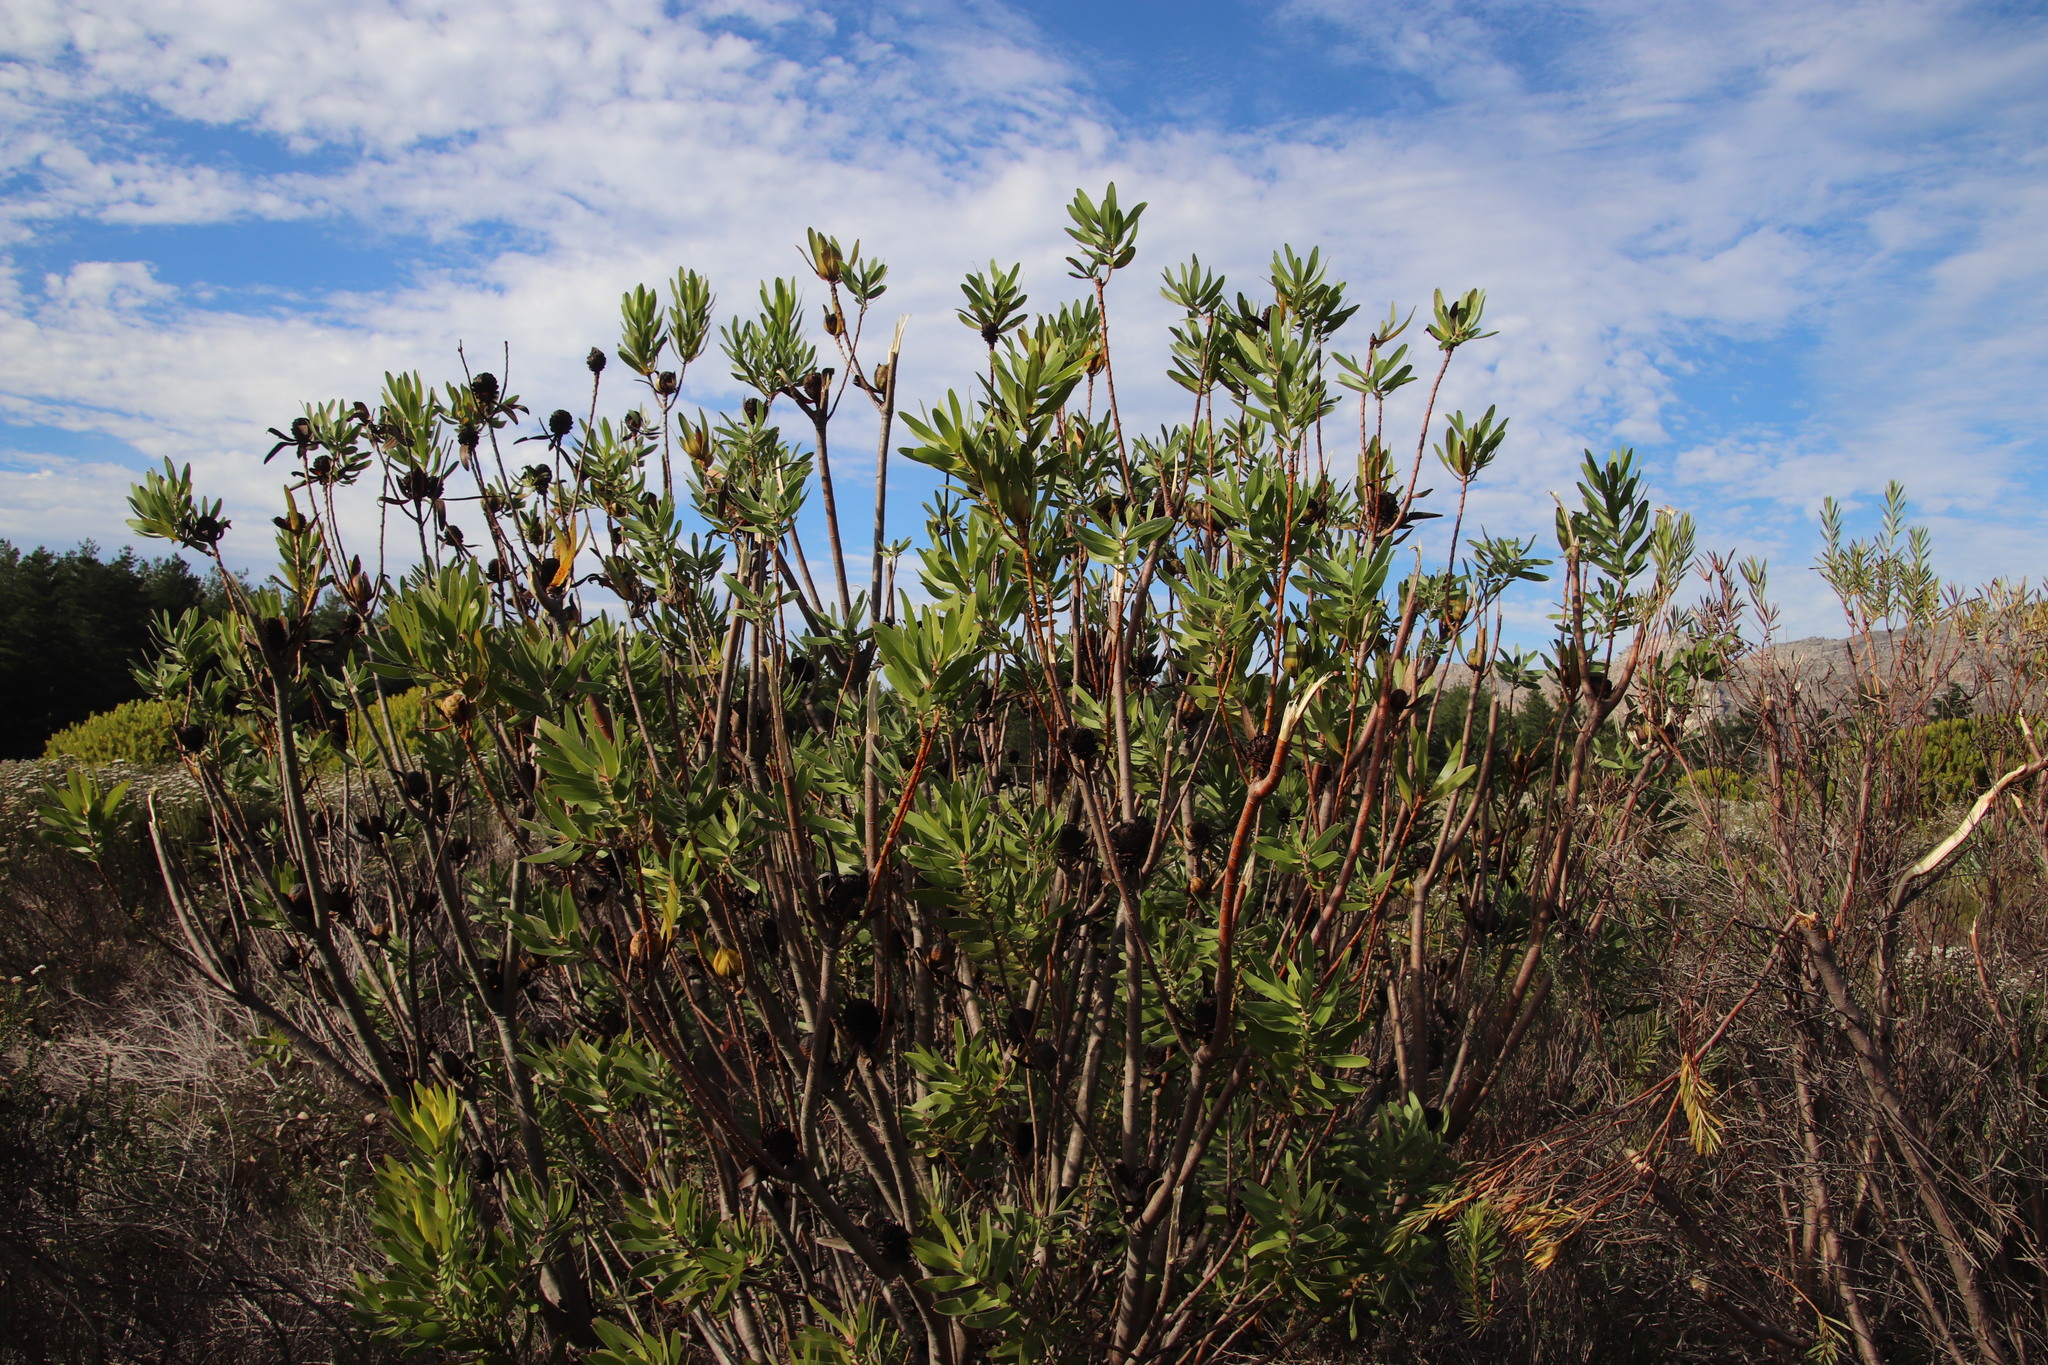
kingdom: Plantae
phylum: Tracheophyta
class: Magnoliopsida
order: Proteales
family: Proteaceae
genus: Leucadendron
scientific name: Leucadendron laureolum
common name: Golden sunshinebush
